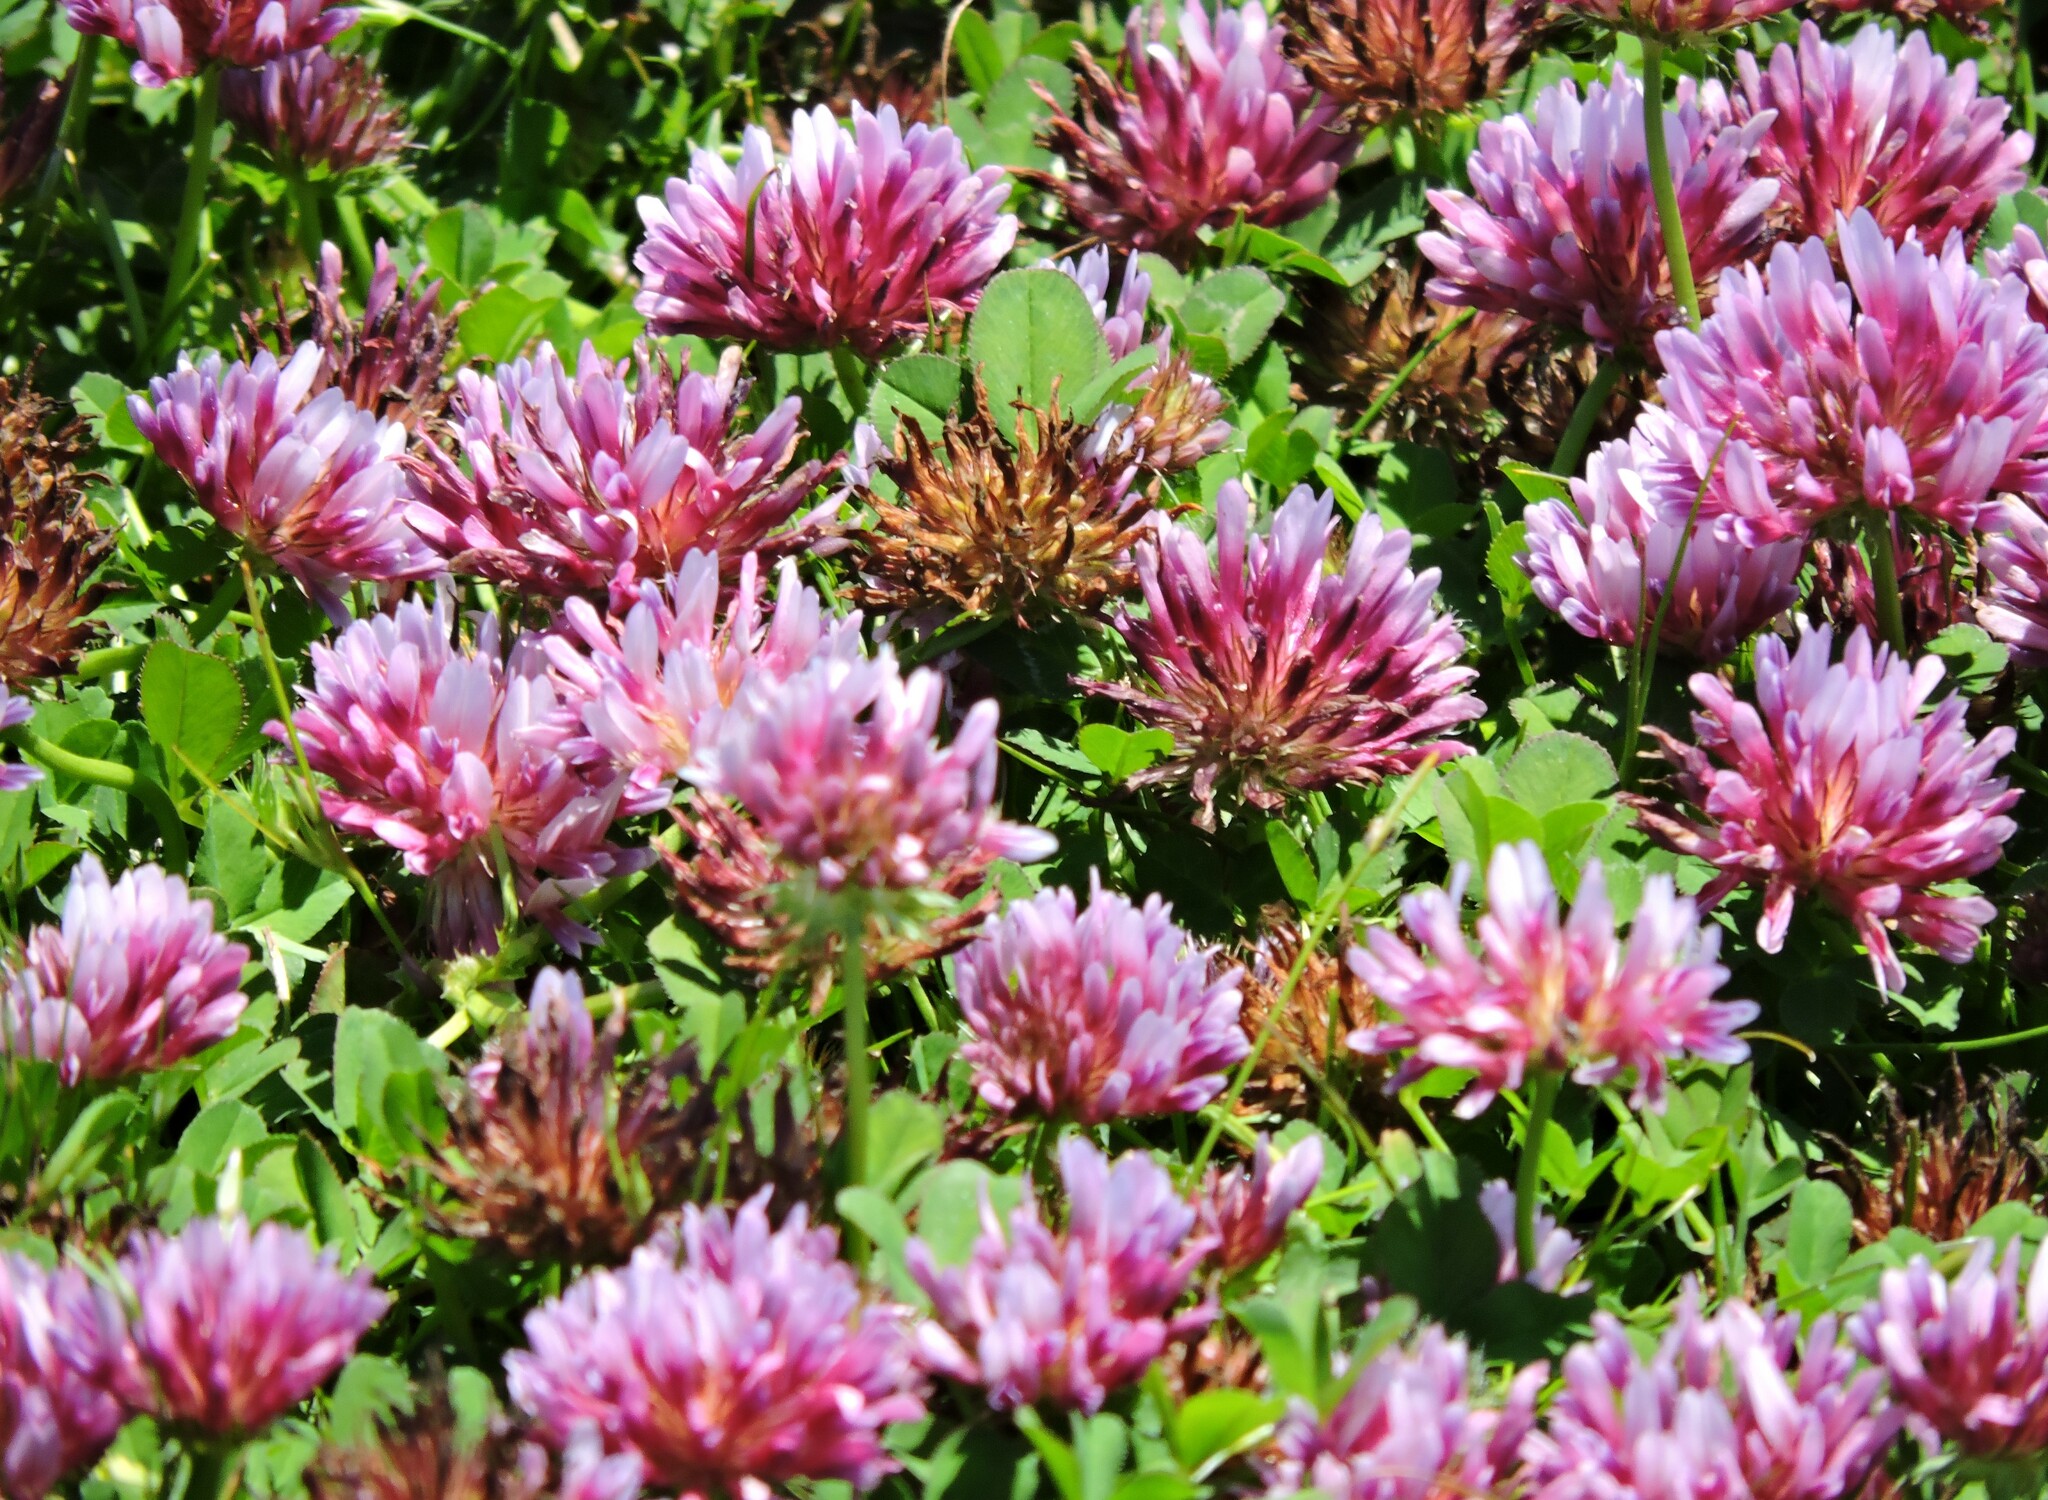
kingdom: Plantae
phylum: Tracheophyta
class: Magnoliopsida
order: Fabales
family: Fabaceae
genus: Trifolium
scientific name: Trifolium wormskioldii
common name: Springbank clover
